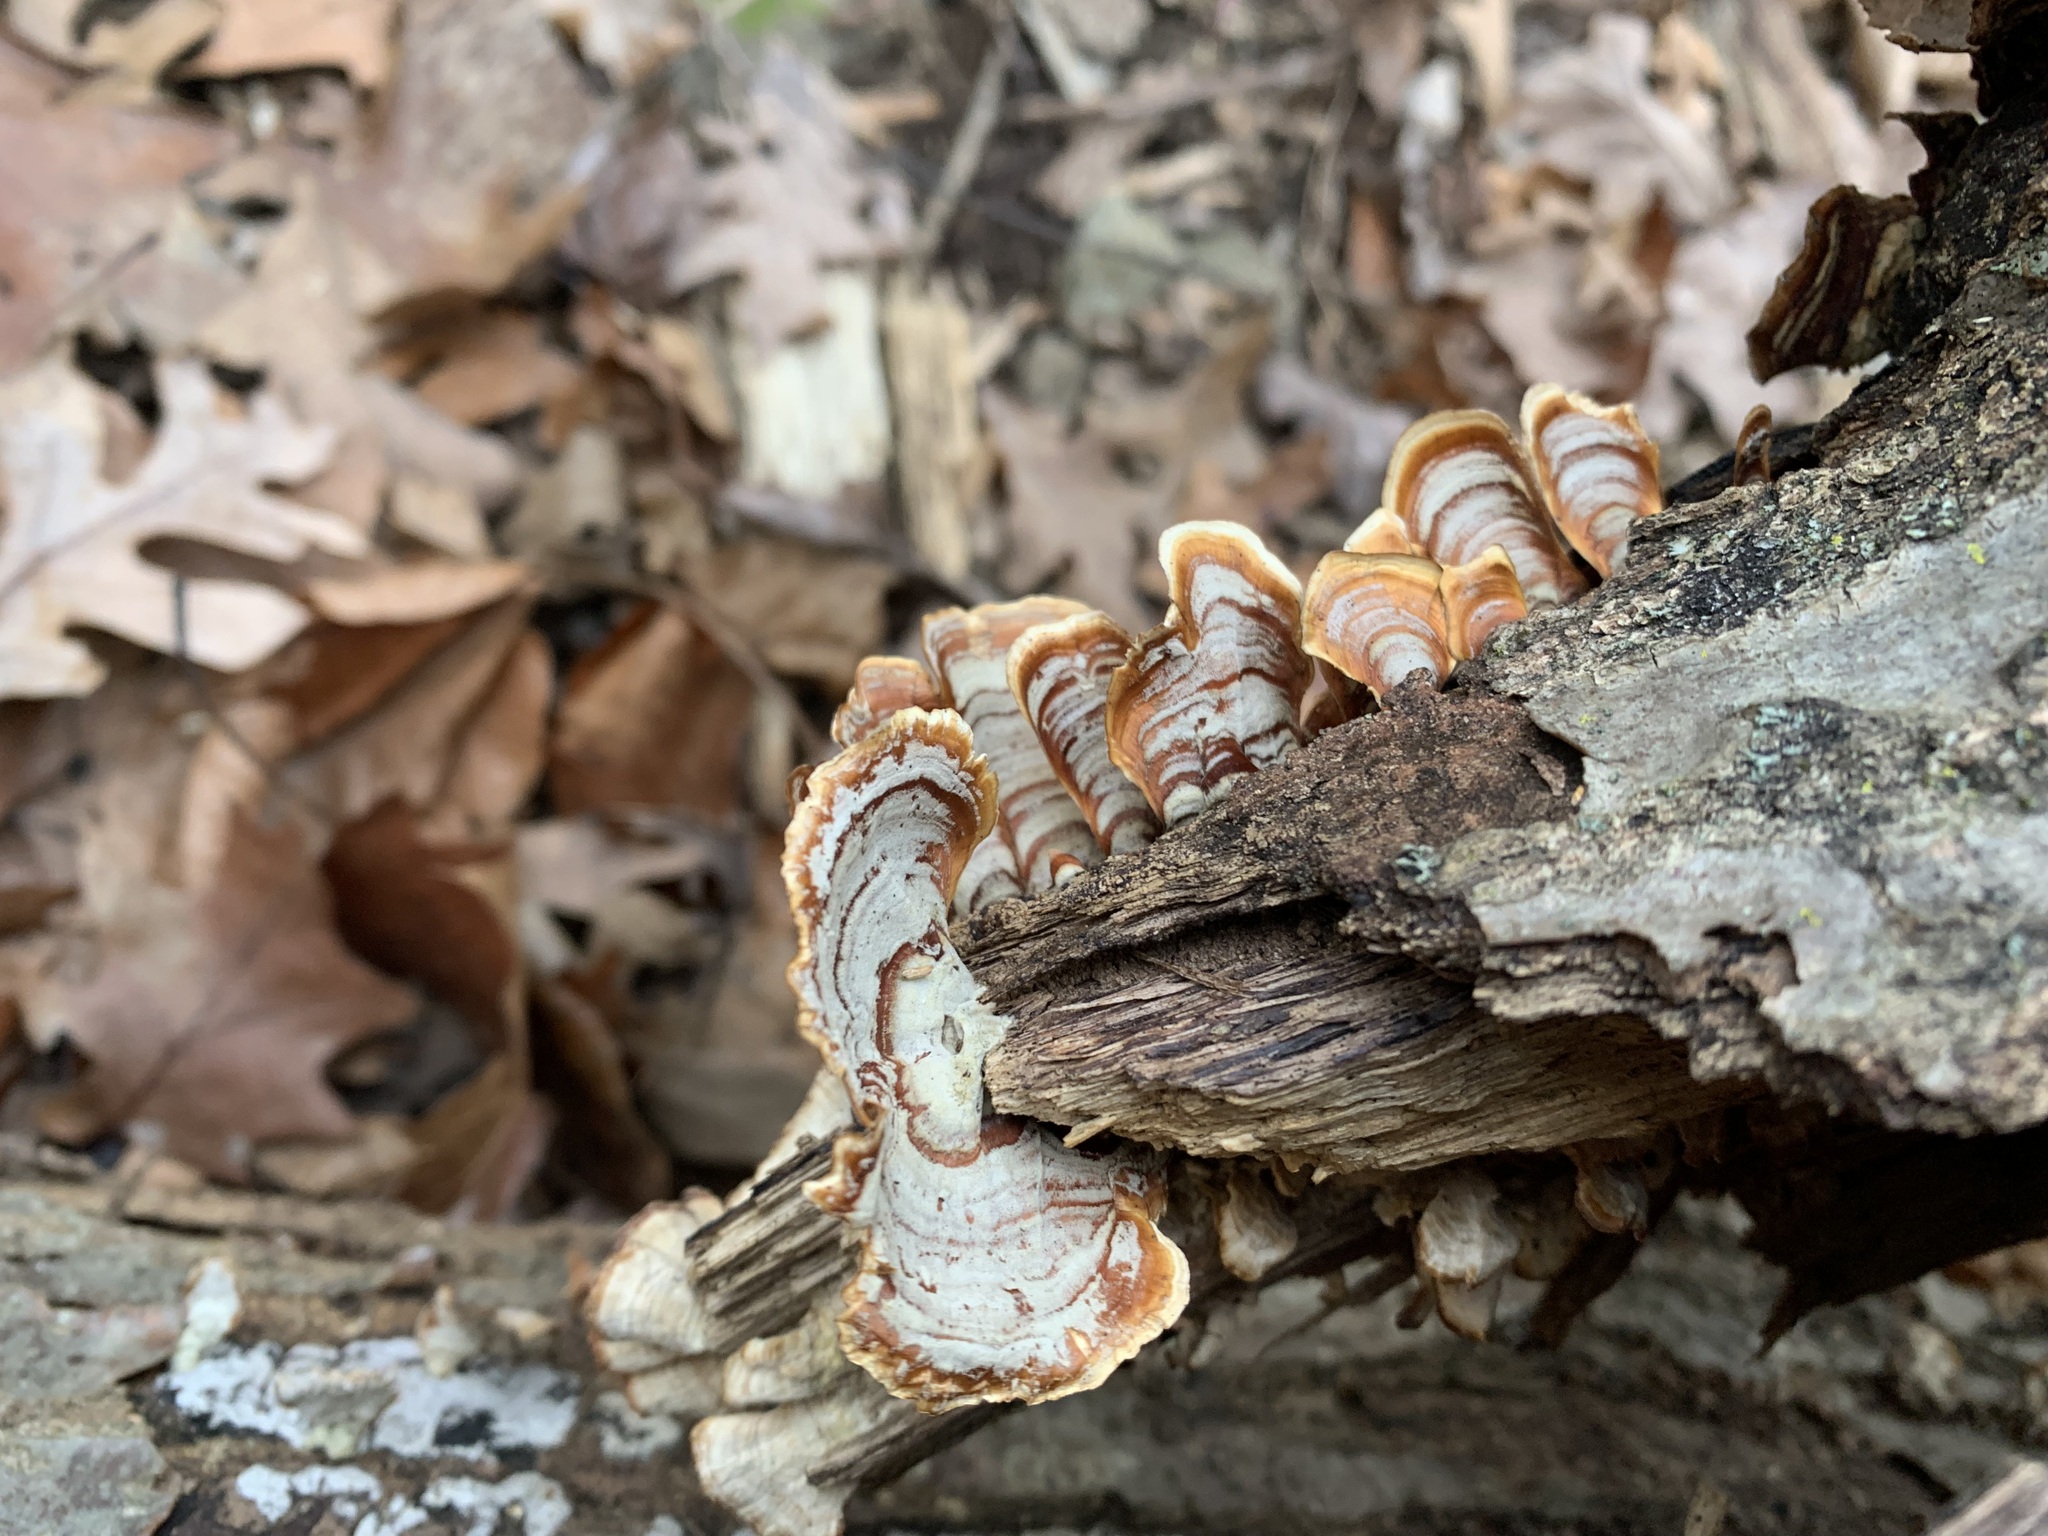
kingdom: Fungi
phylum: Basidiomycota
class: Agaricomycetes
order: Russulales
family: Stereaceae
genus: Stereum
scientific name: Stereum lobatum
